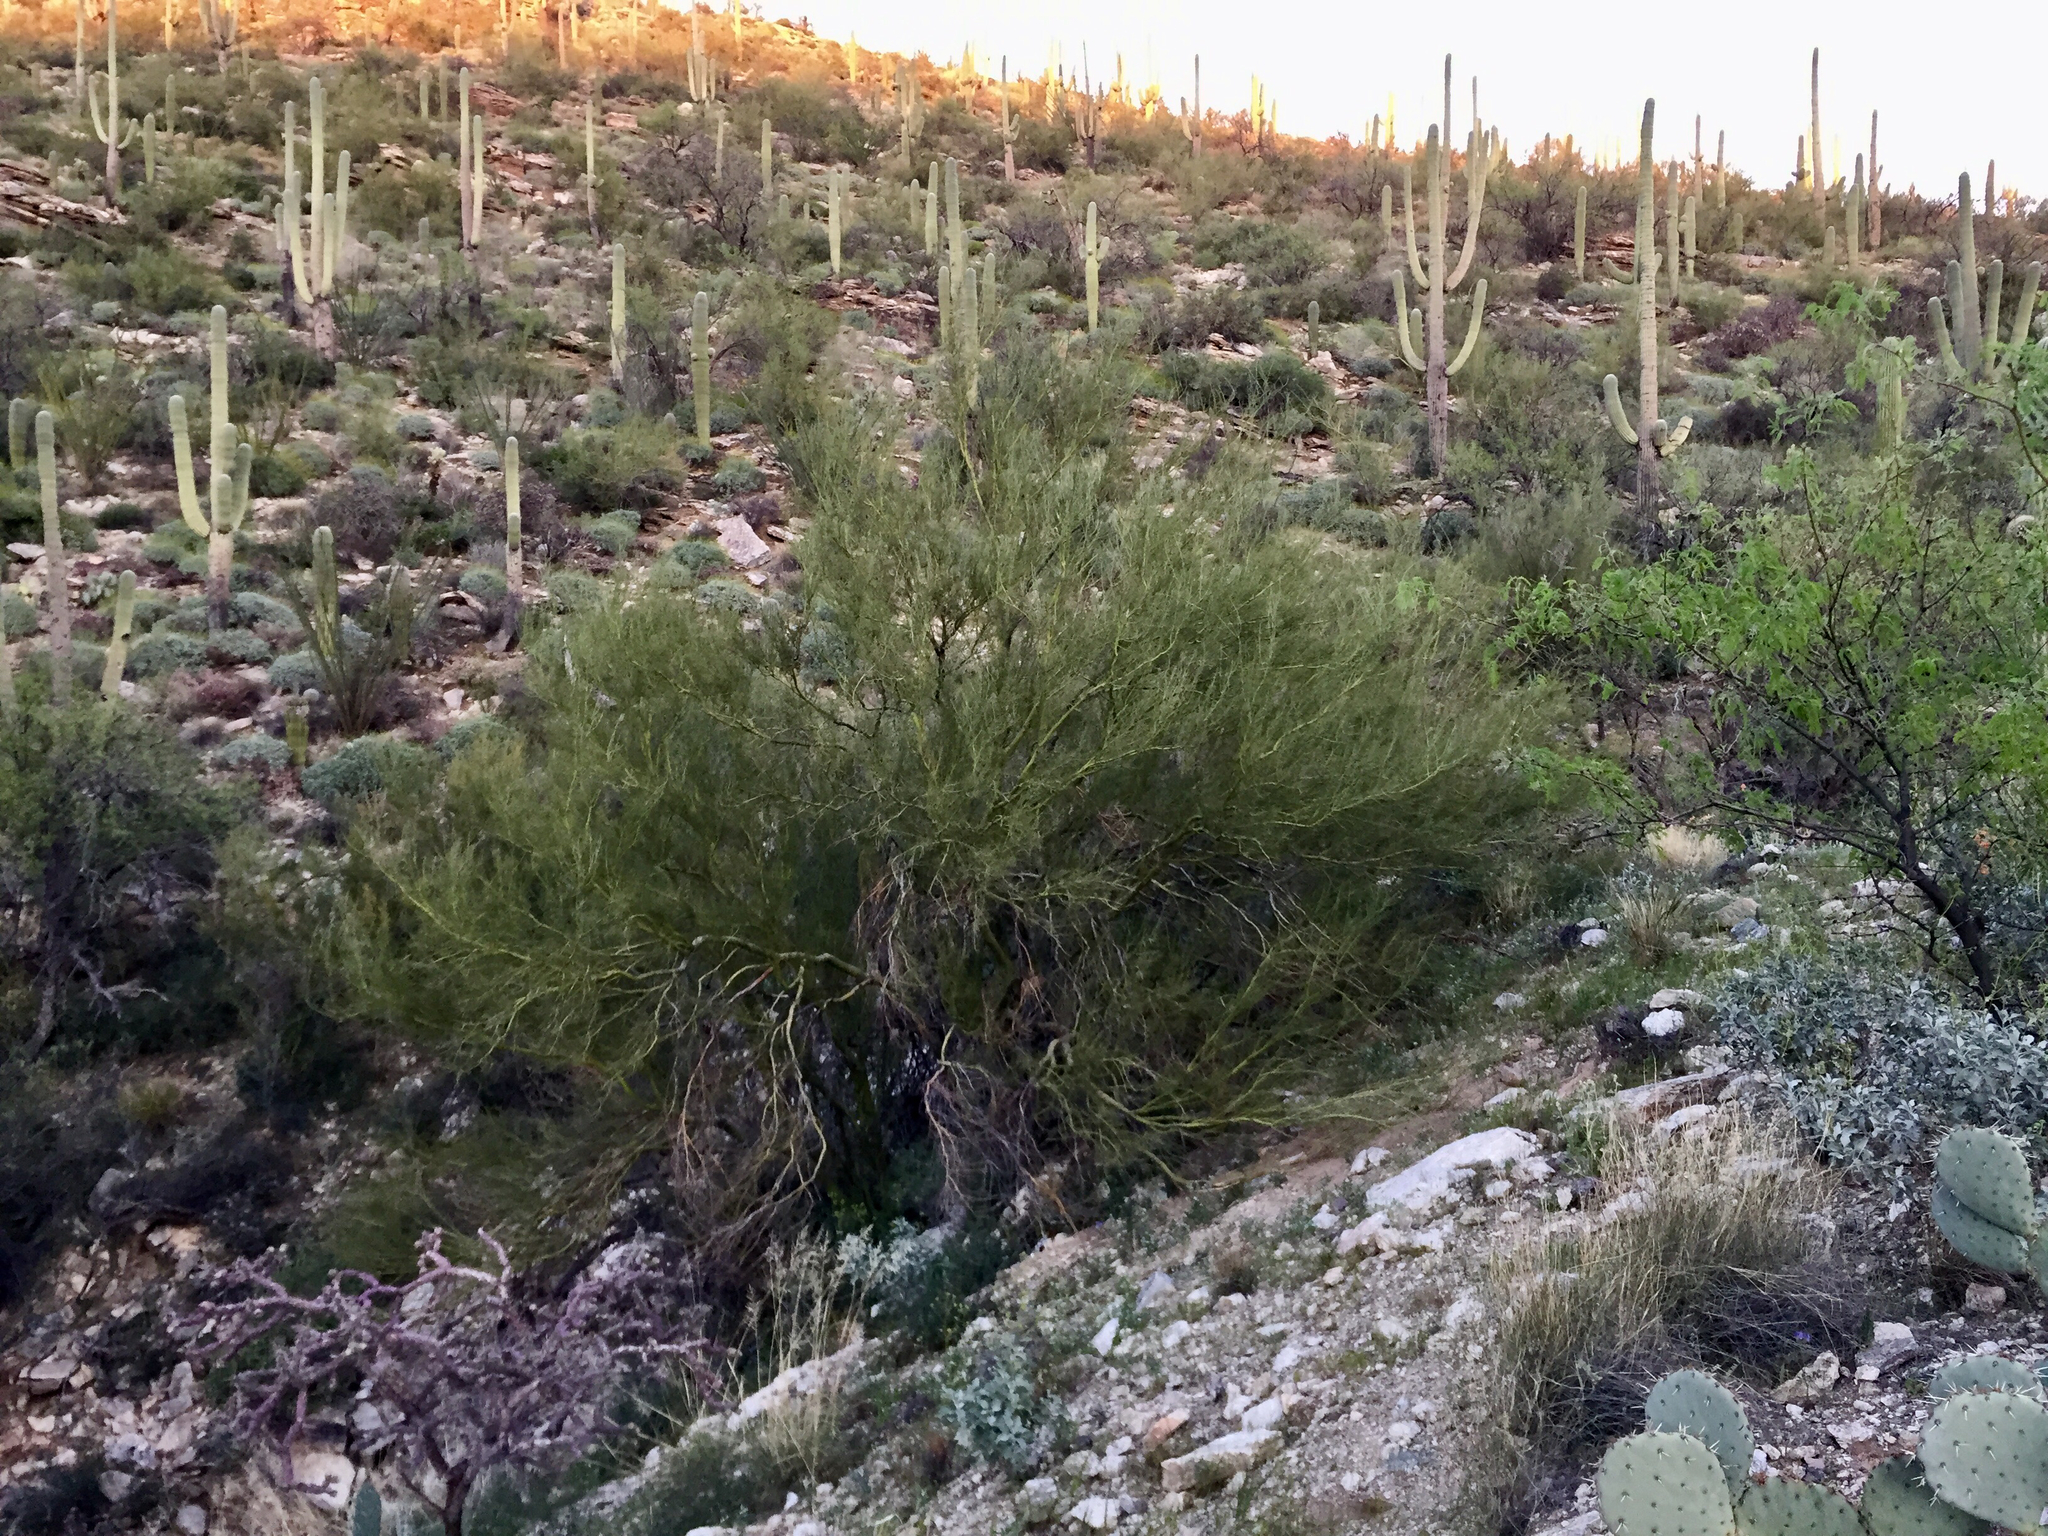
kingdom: Plantae
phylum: Tracheophyta
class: Magnoliopsida
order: Fabales
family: Fabaceae
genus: Parkinsonia
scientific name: Parkinsonia microphylla
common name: Yellow paloverde
